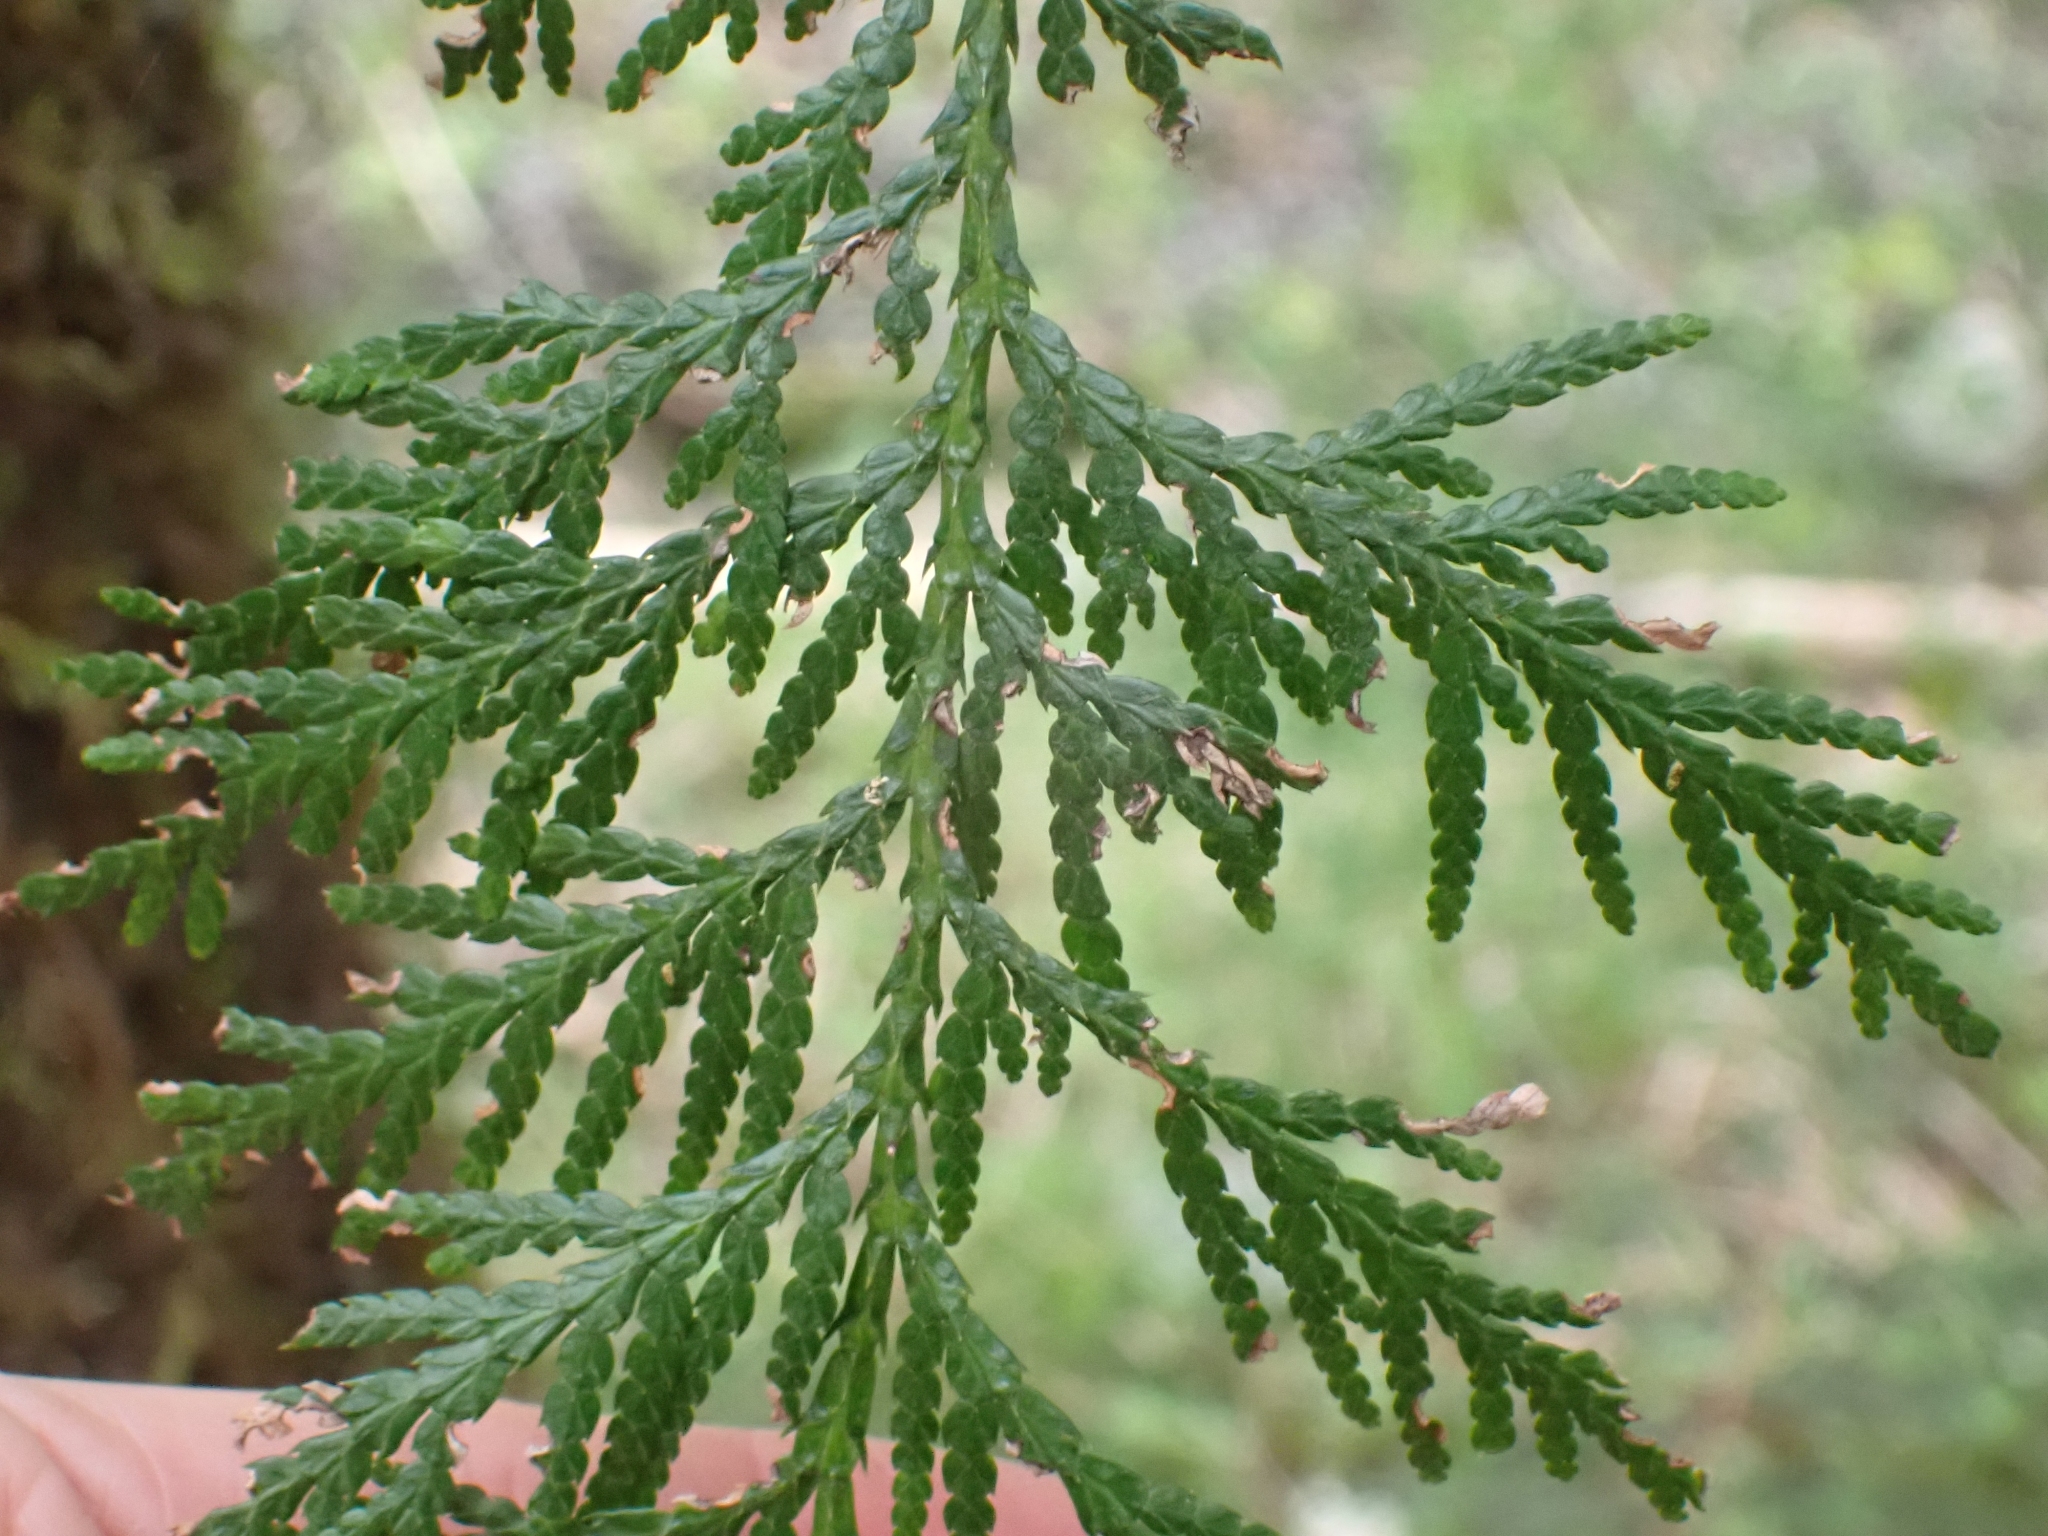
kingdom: Plantae
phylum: Tracheophyta
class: Pinopsida
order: Pinales
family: Cupressaceae
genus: Thuja
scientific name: Thuja plicata
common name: Western red-cedar
